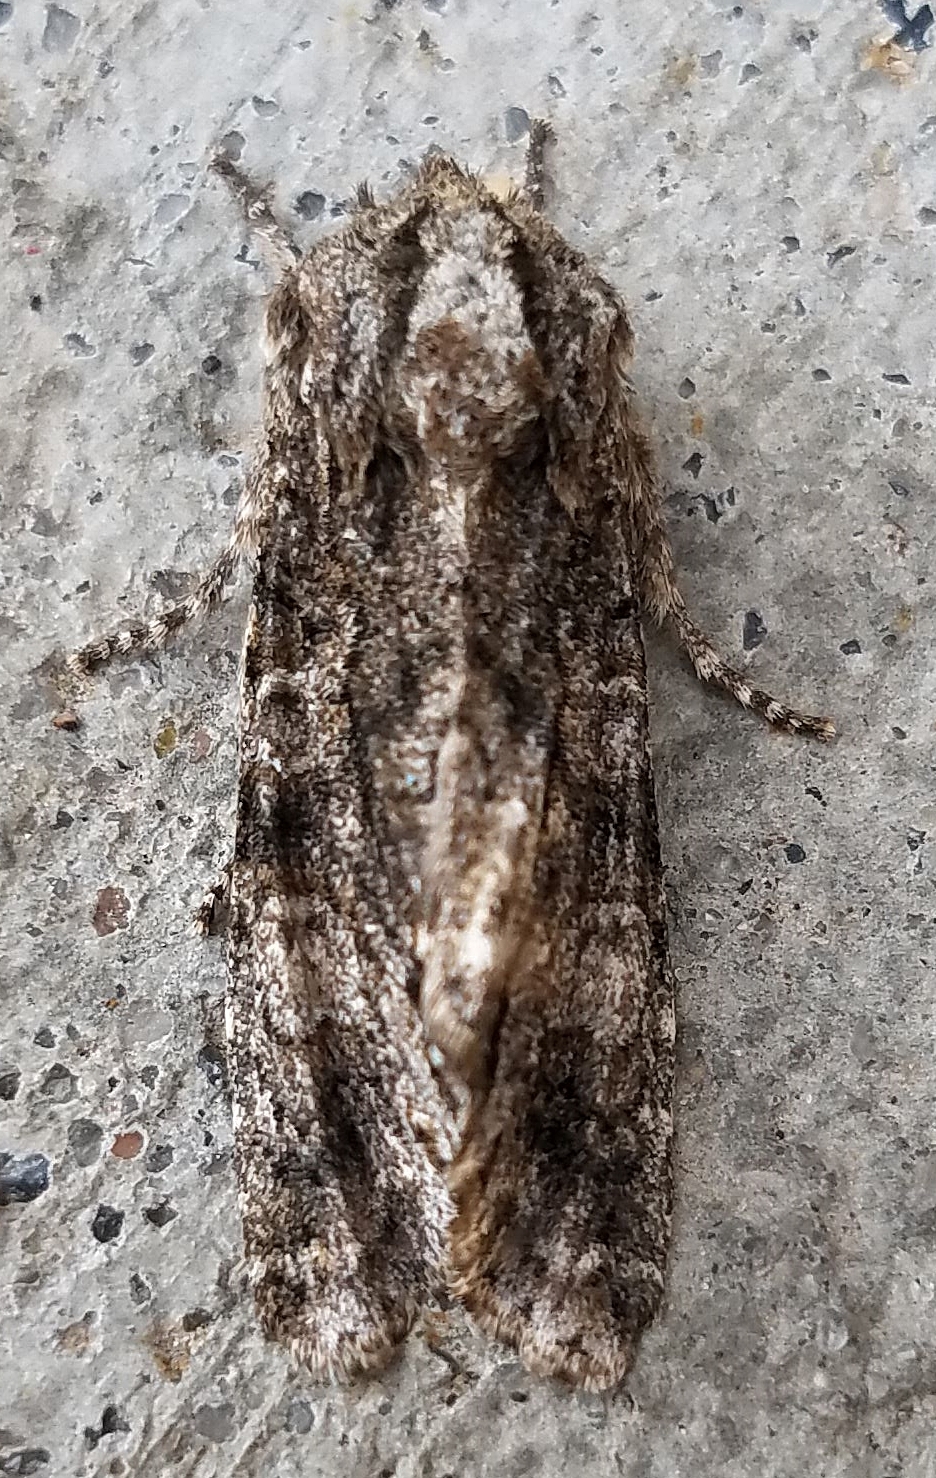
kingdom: Animalia
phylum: Arthropoda
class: Insecta
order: Lepidoptera
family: Noctuidae
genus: Psaphida
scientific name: Psaphida grotei
